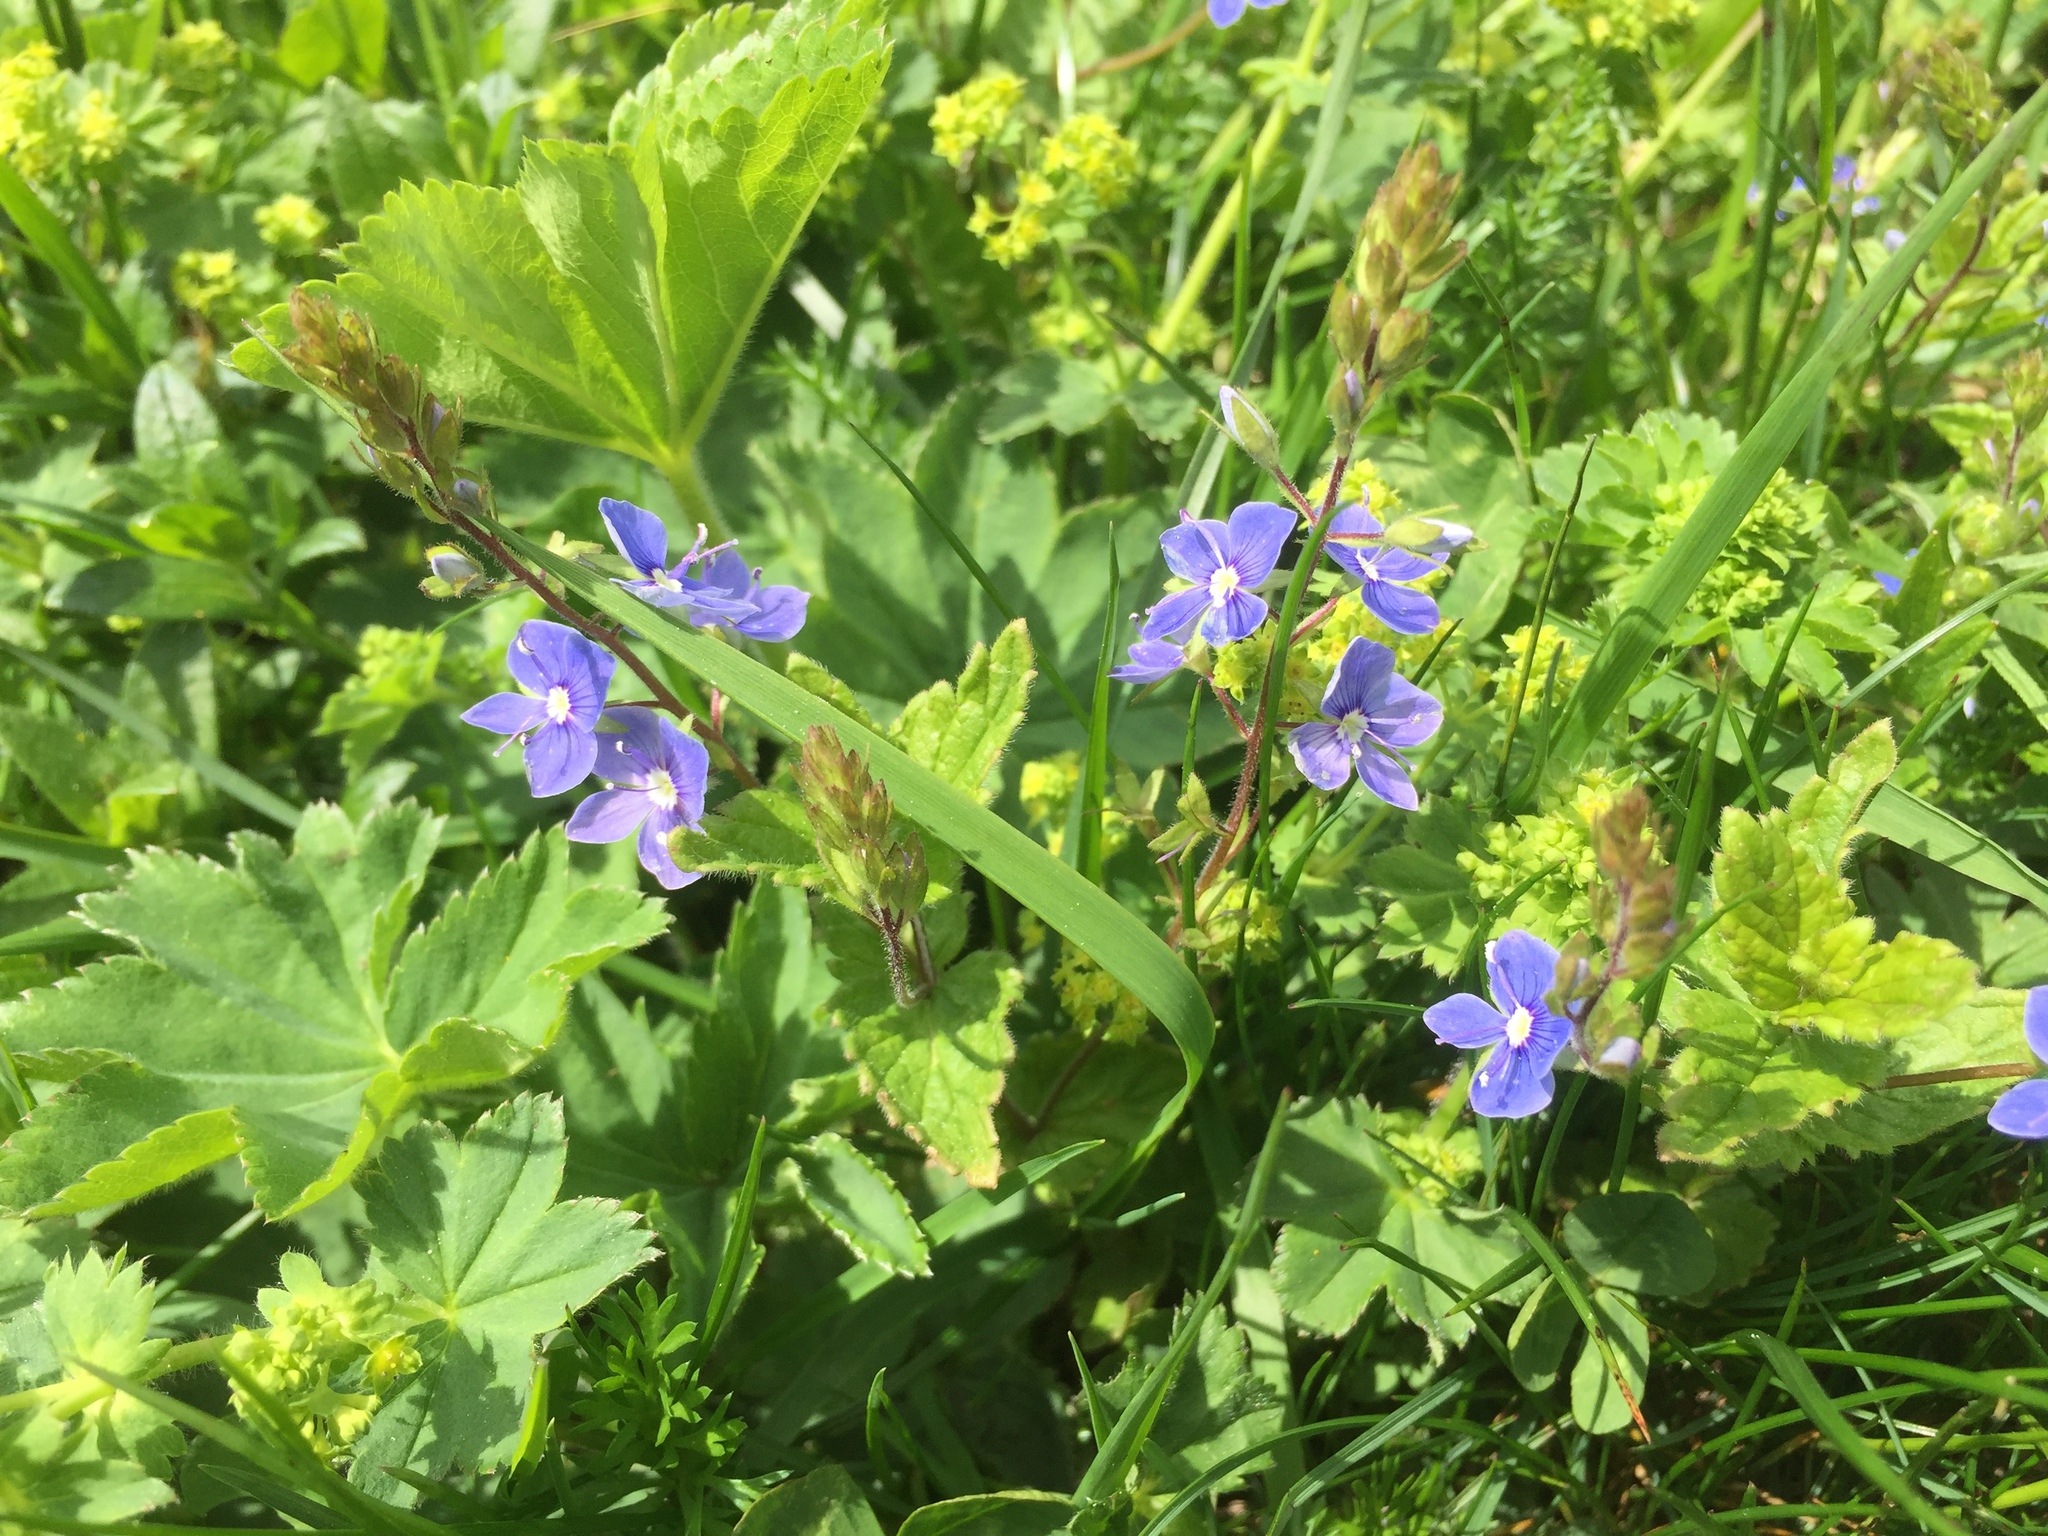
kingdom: Plantae
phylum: Tracheophyta
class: Magnoliopsida
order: Lamiales
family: Plantaginaceae
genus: Veronica
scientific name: Veronica chamaedrys
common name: Germander speedwell
